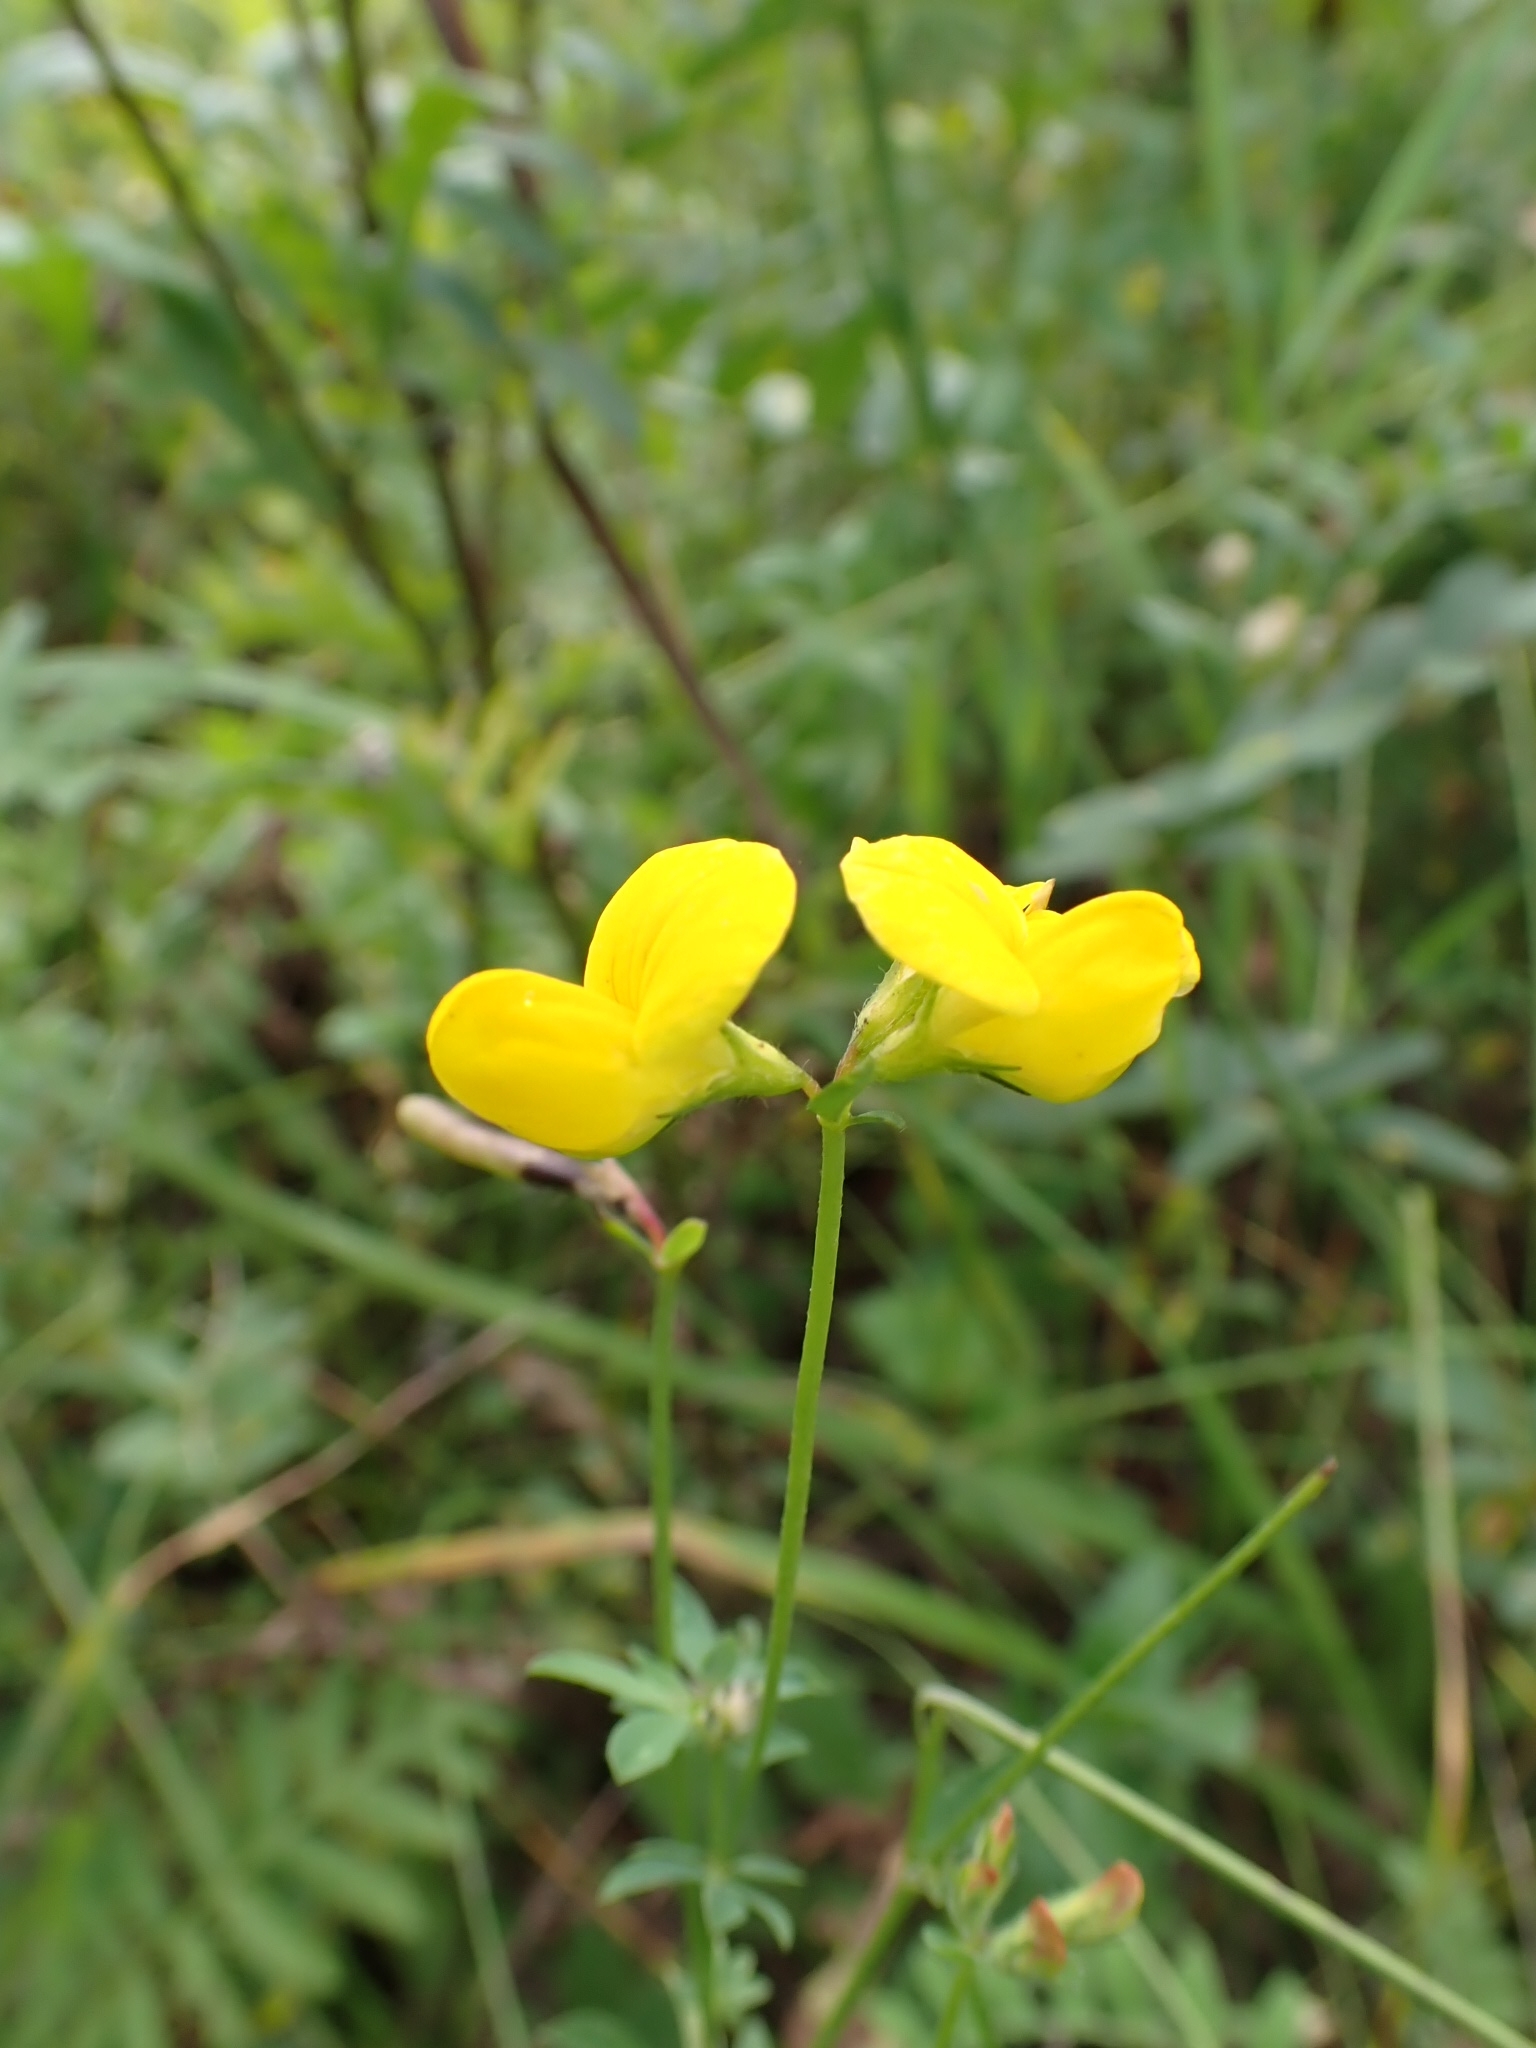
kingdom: Plantae
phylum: Tracheophyta
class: Magnoliopsida
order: Fabales
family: Fabaceae
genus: Lotus
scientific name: Lotus corniculatus
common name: Common bird's-foot-trefoil
